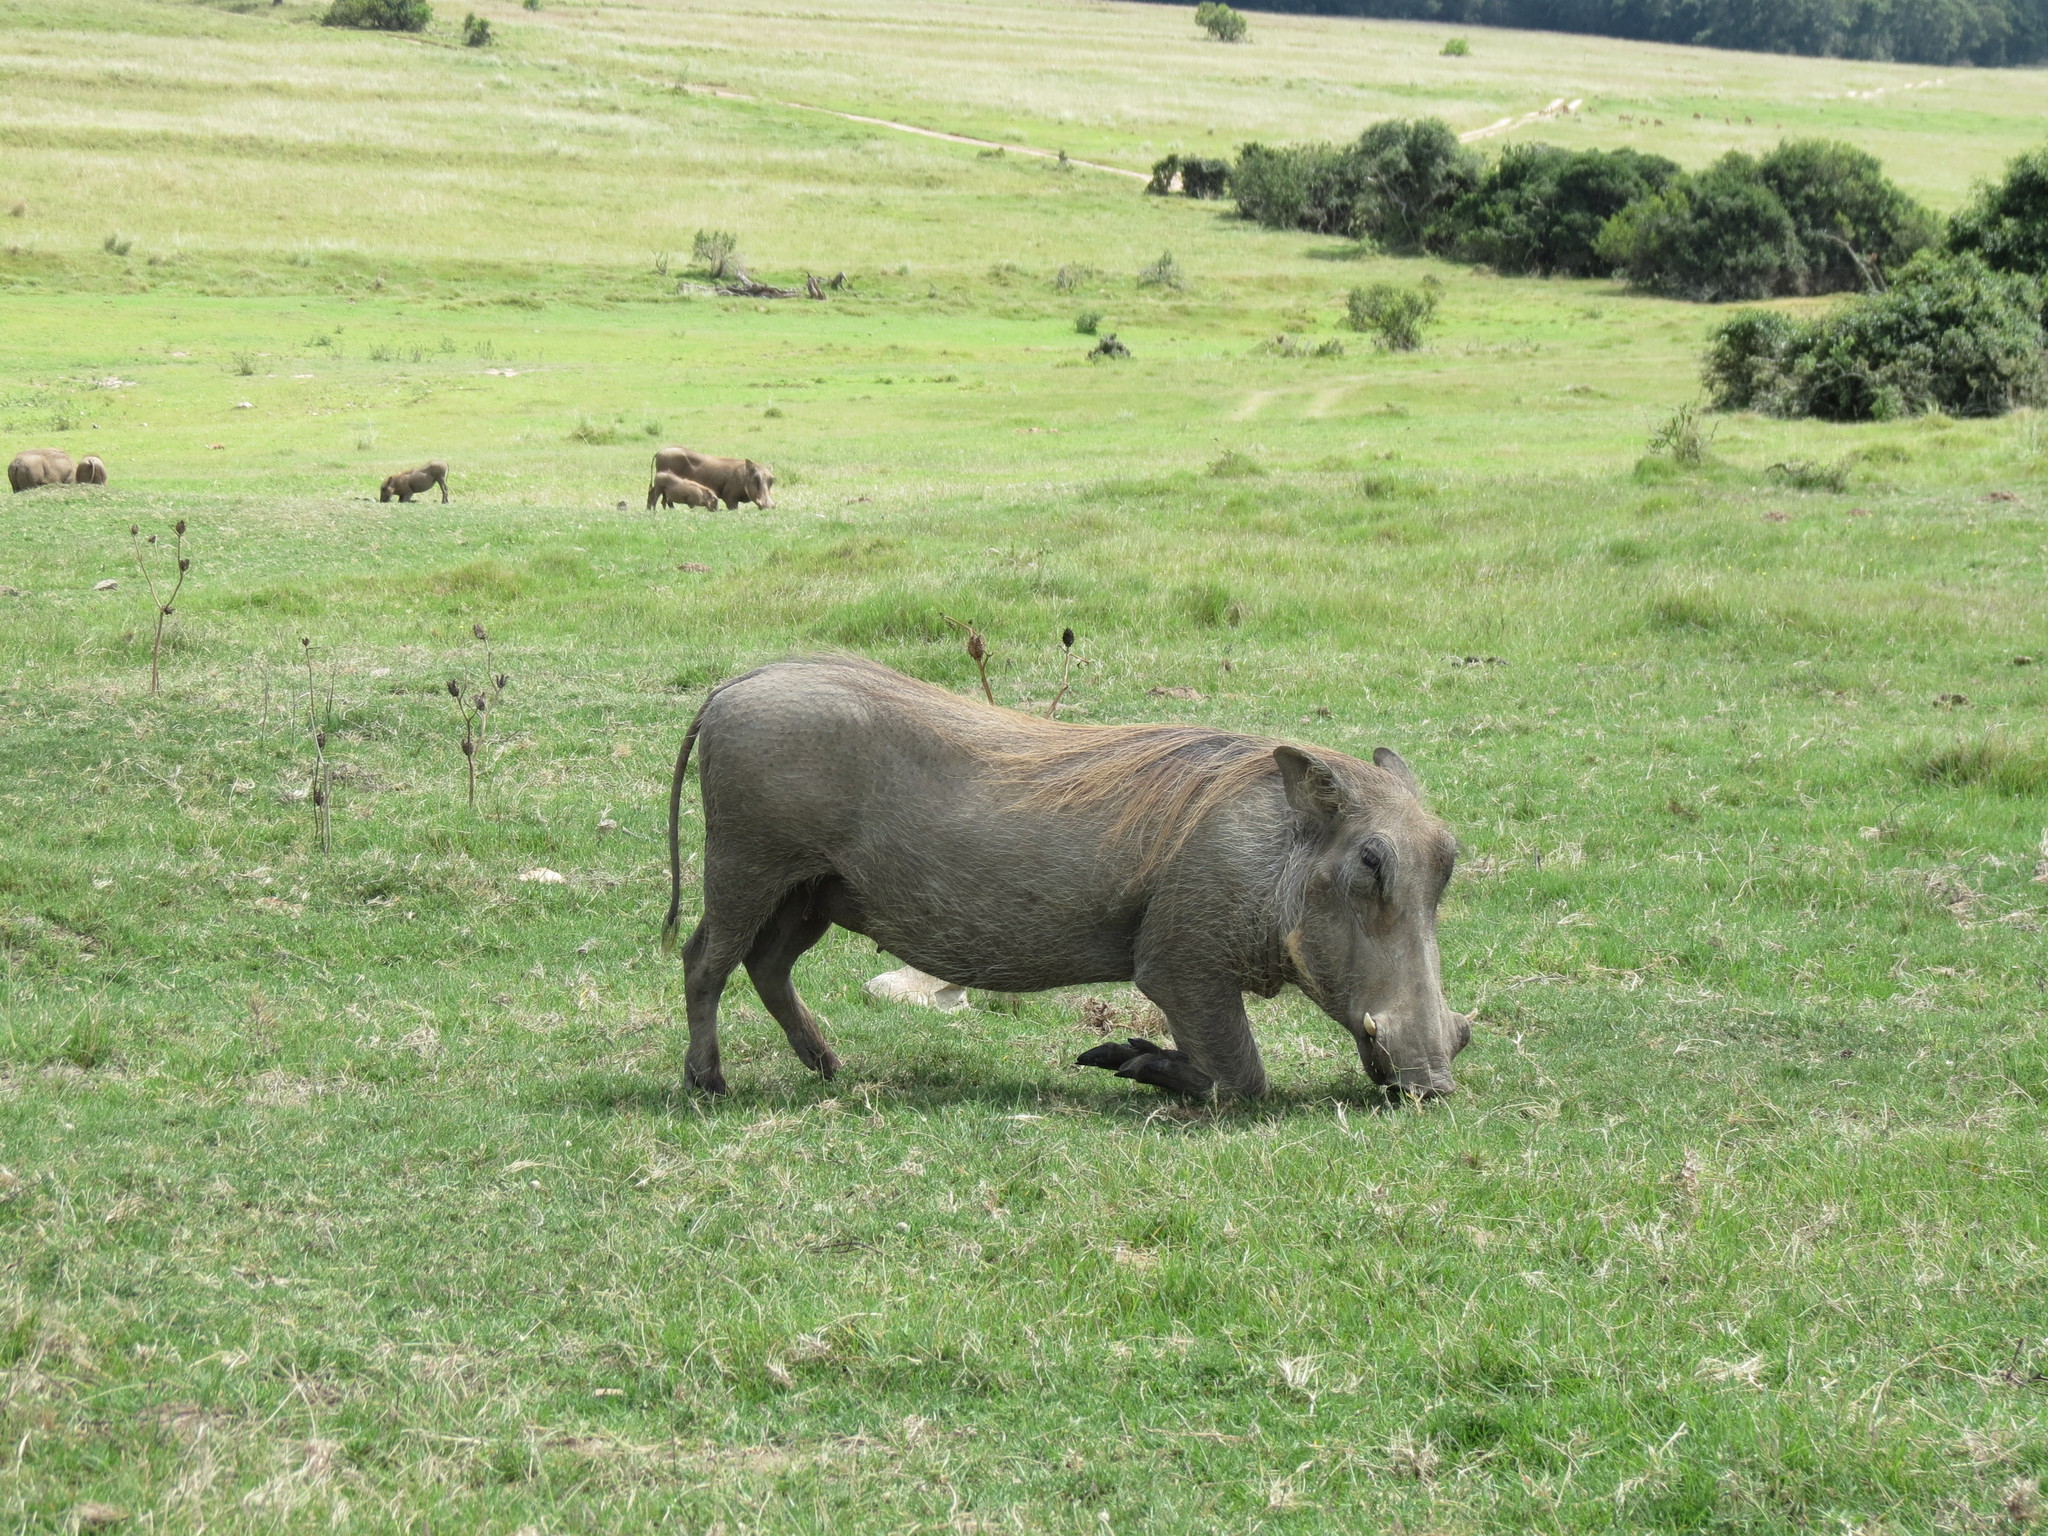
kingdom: Animalia
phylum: Chordata
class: Mammalia
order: Artiodactyla
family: Suidae
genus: Phacochoerus
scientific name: Phacochoerus africanus
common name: Common warthog
